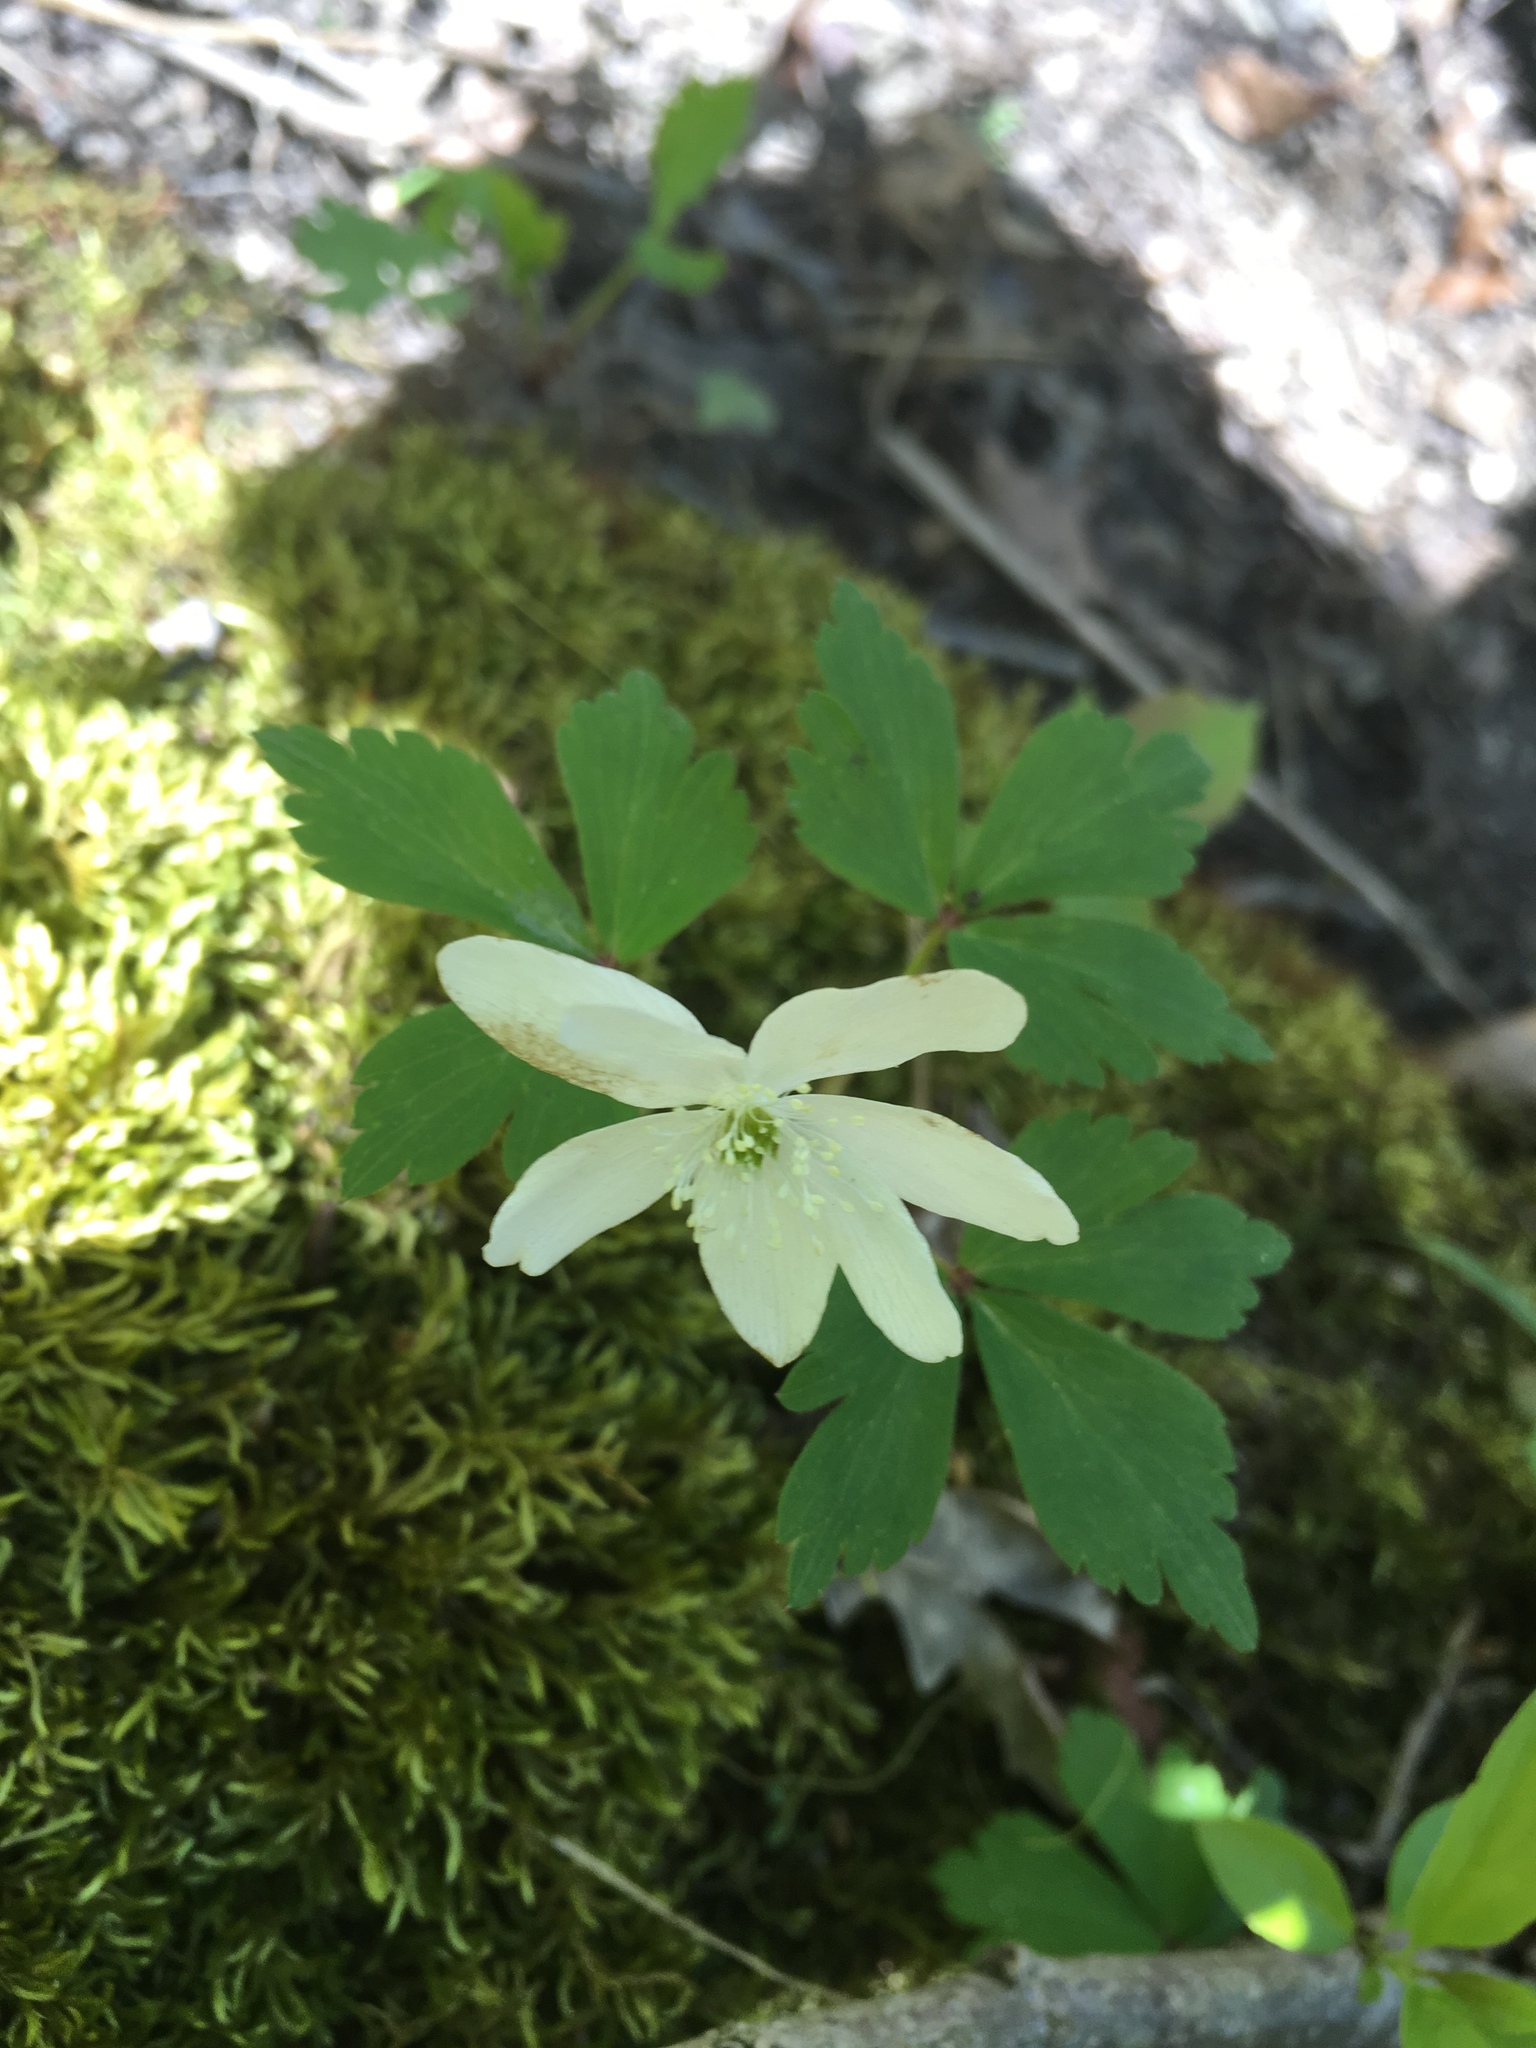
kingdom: Plantae
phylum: Tracheophyta
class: Magnoliopsida
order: Ranunculales
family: Ranunculaceae
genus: Anemone
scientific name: Anemone quinquefolia
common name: Wood anemone
